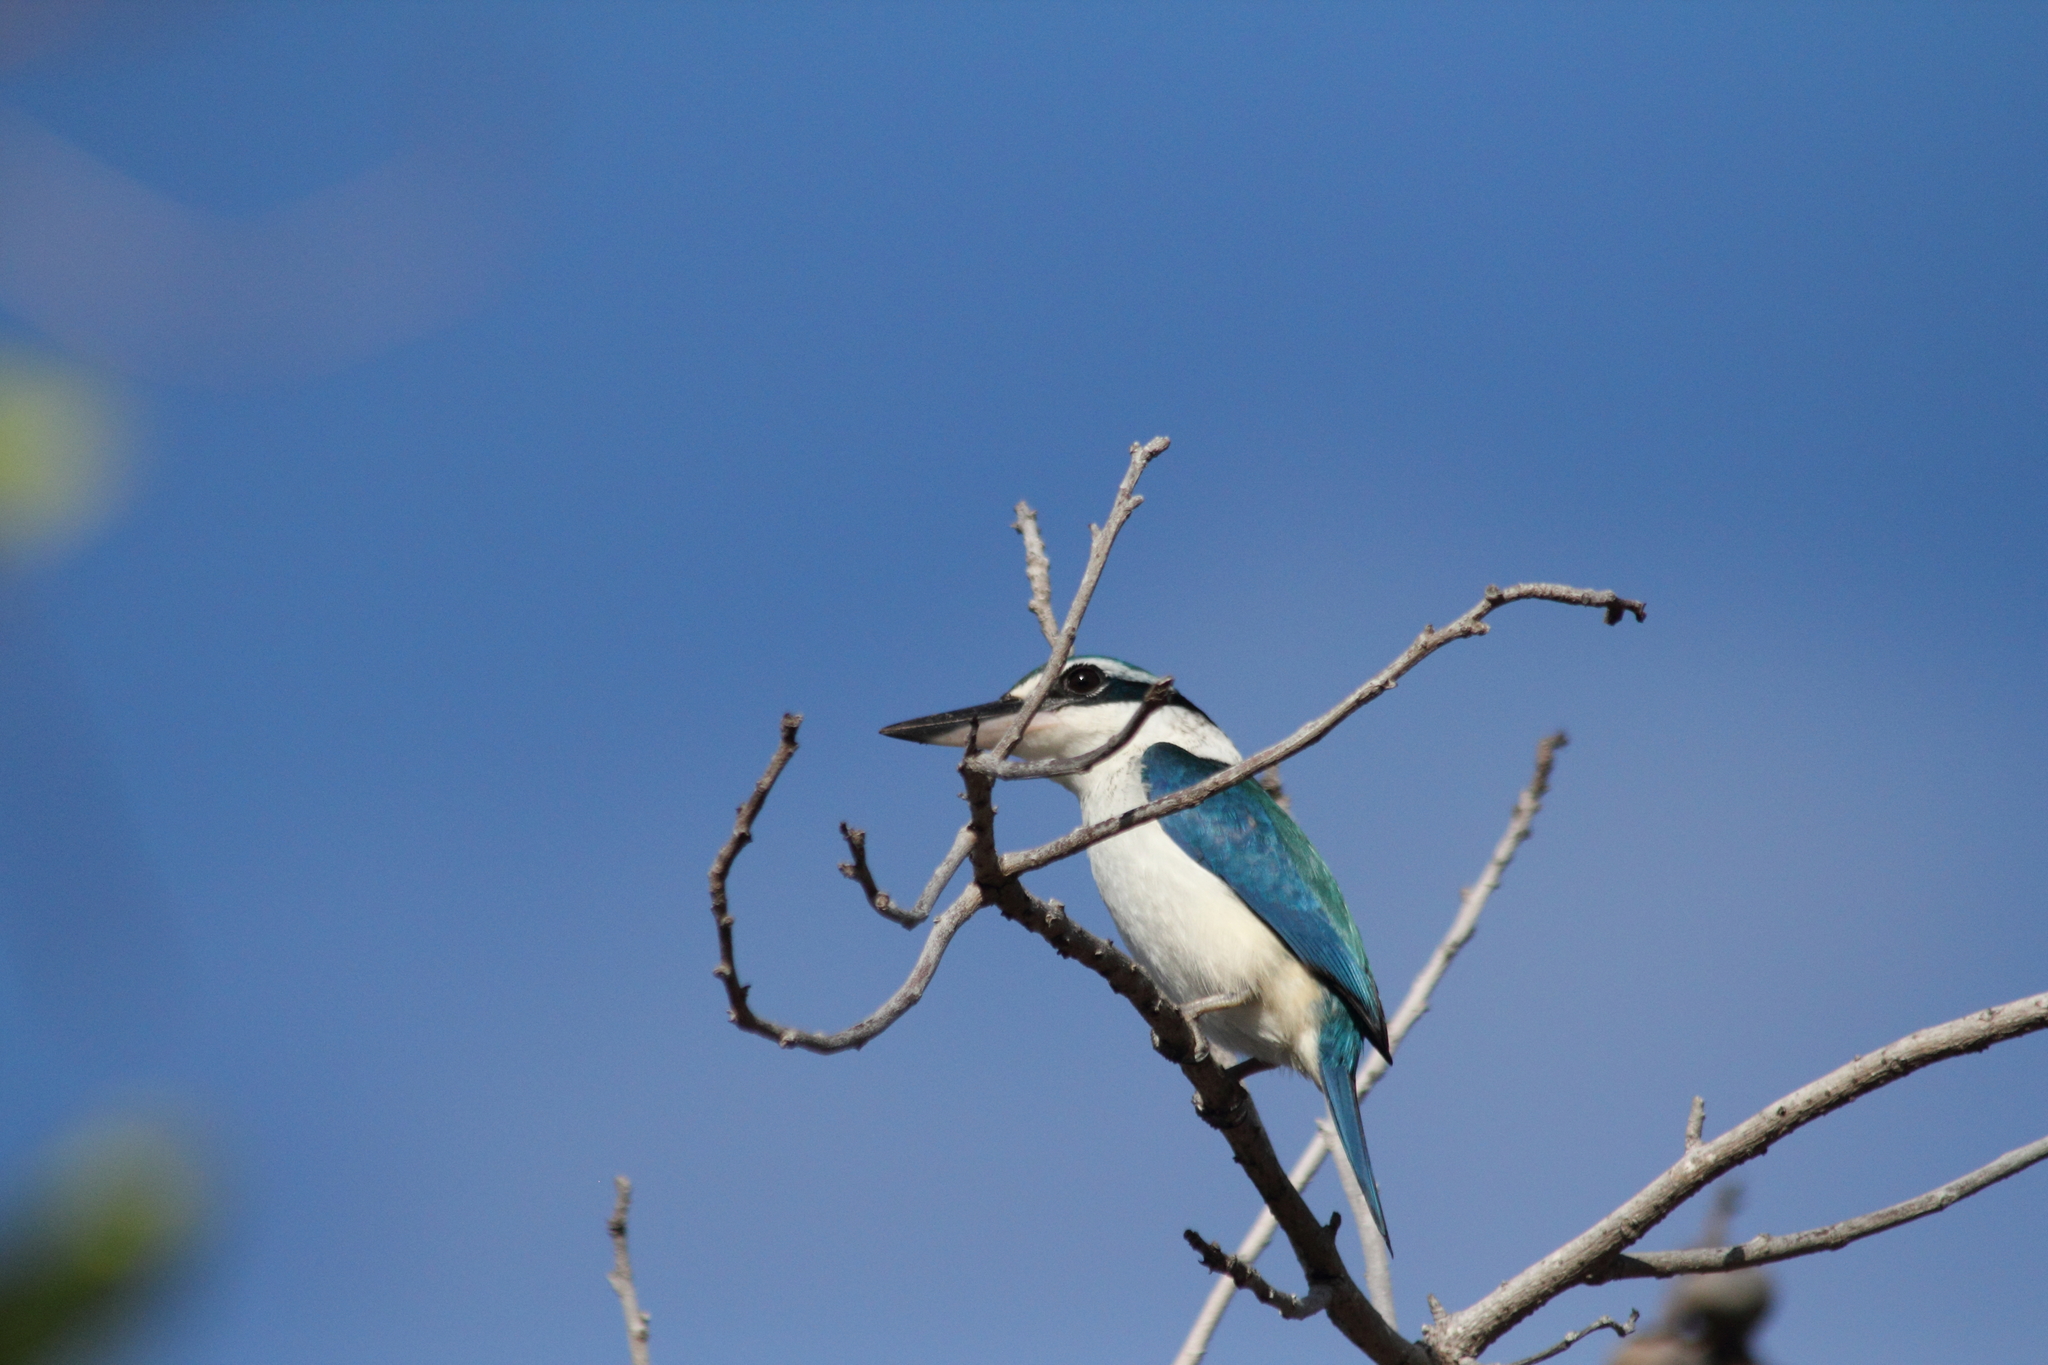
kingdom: Animalia
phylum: Chordata
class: Aves
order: Coraciiformes
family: Alcedinidae
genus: Todiramphus
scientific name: Todiramphus sacer
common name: Pacific kingfisher
